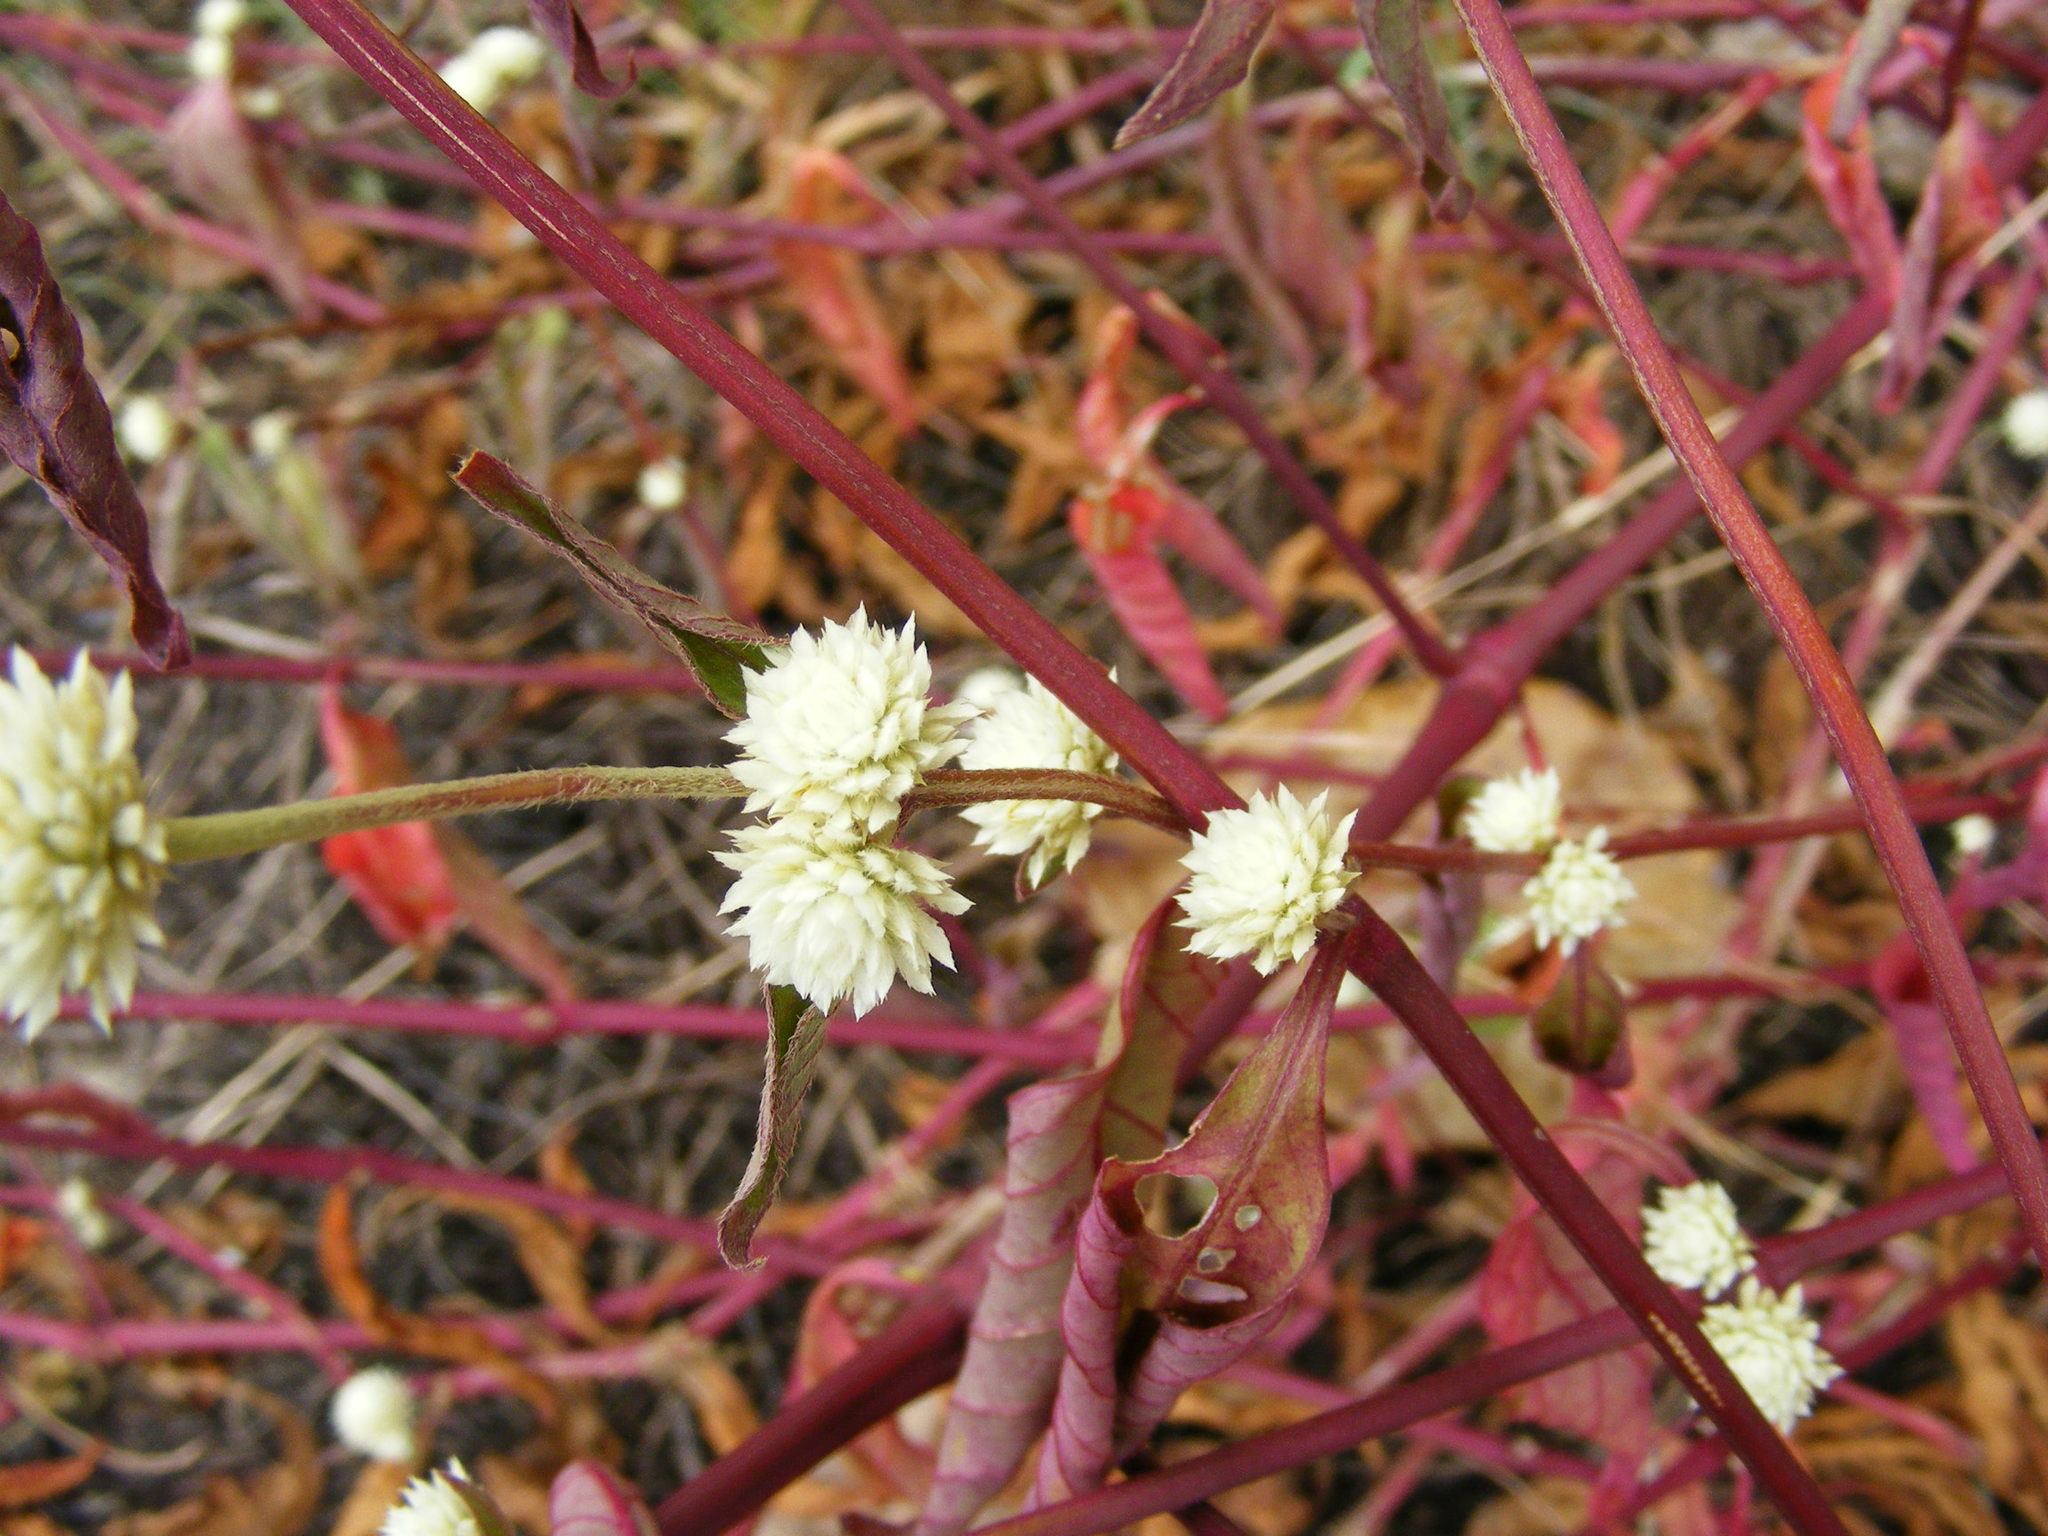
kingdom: Plantae
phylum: Tracheophyta
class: Magnoliopsida
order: Caryophyllales
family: Amaranthaceae
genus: Alternanthera
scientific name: Alternanthera brasiliana
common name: Brazilian joyweed
